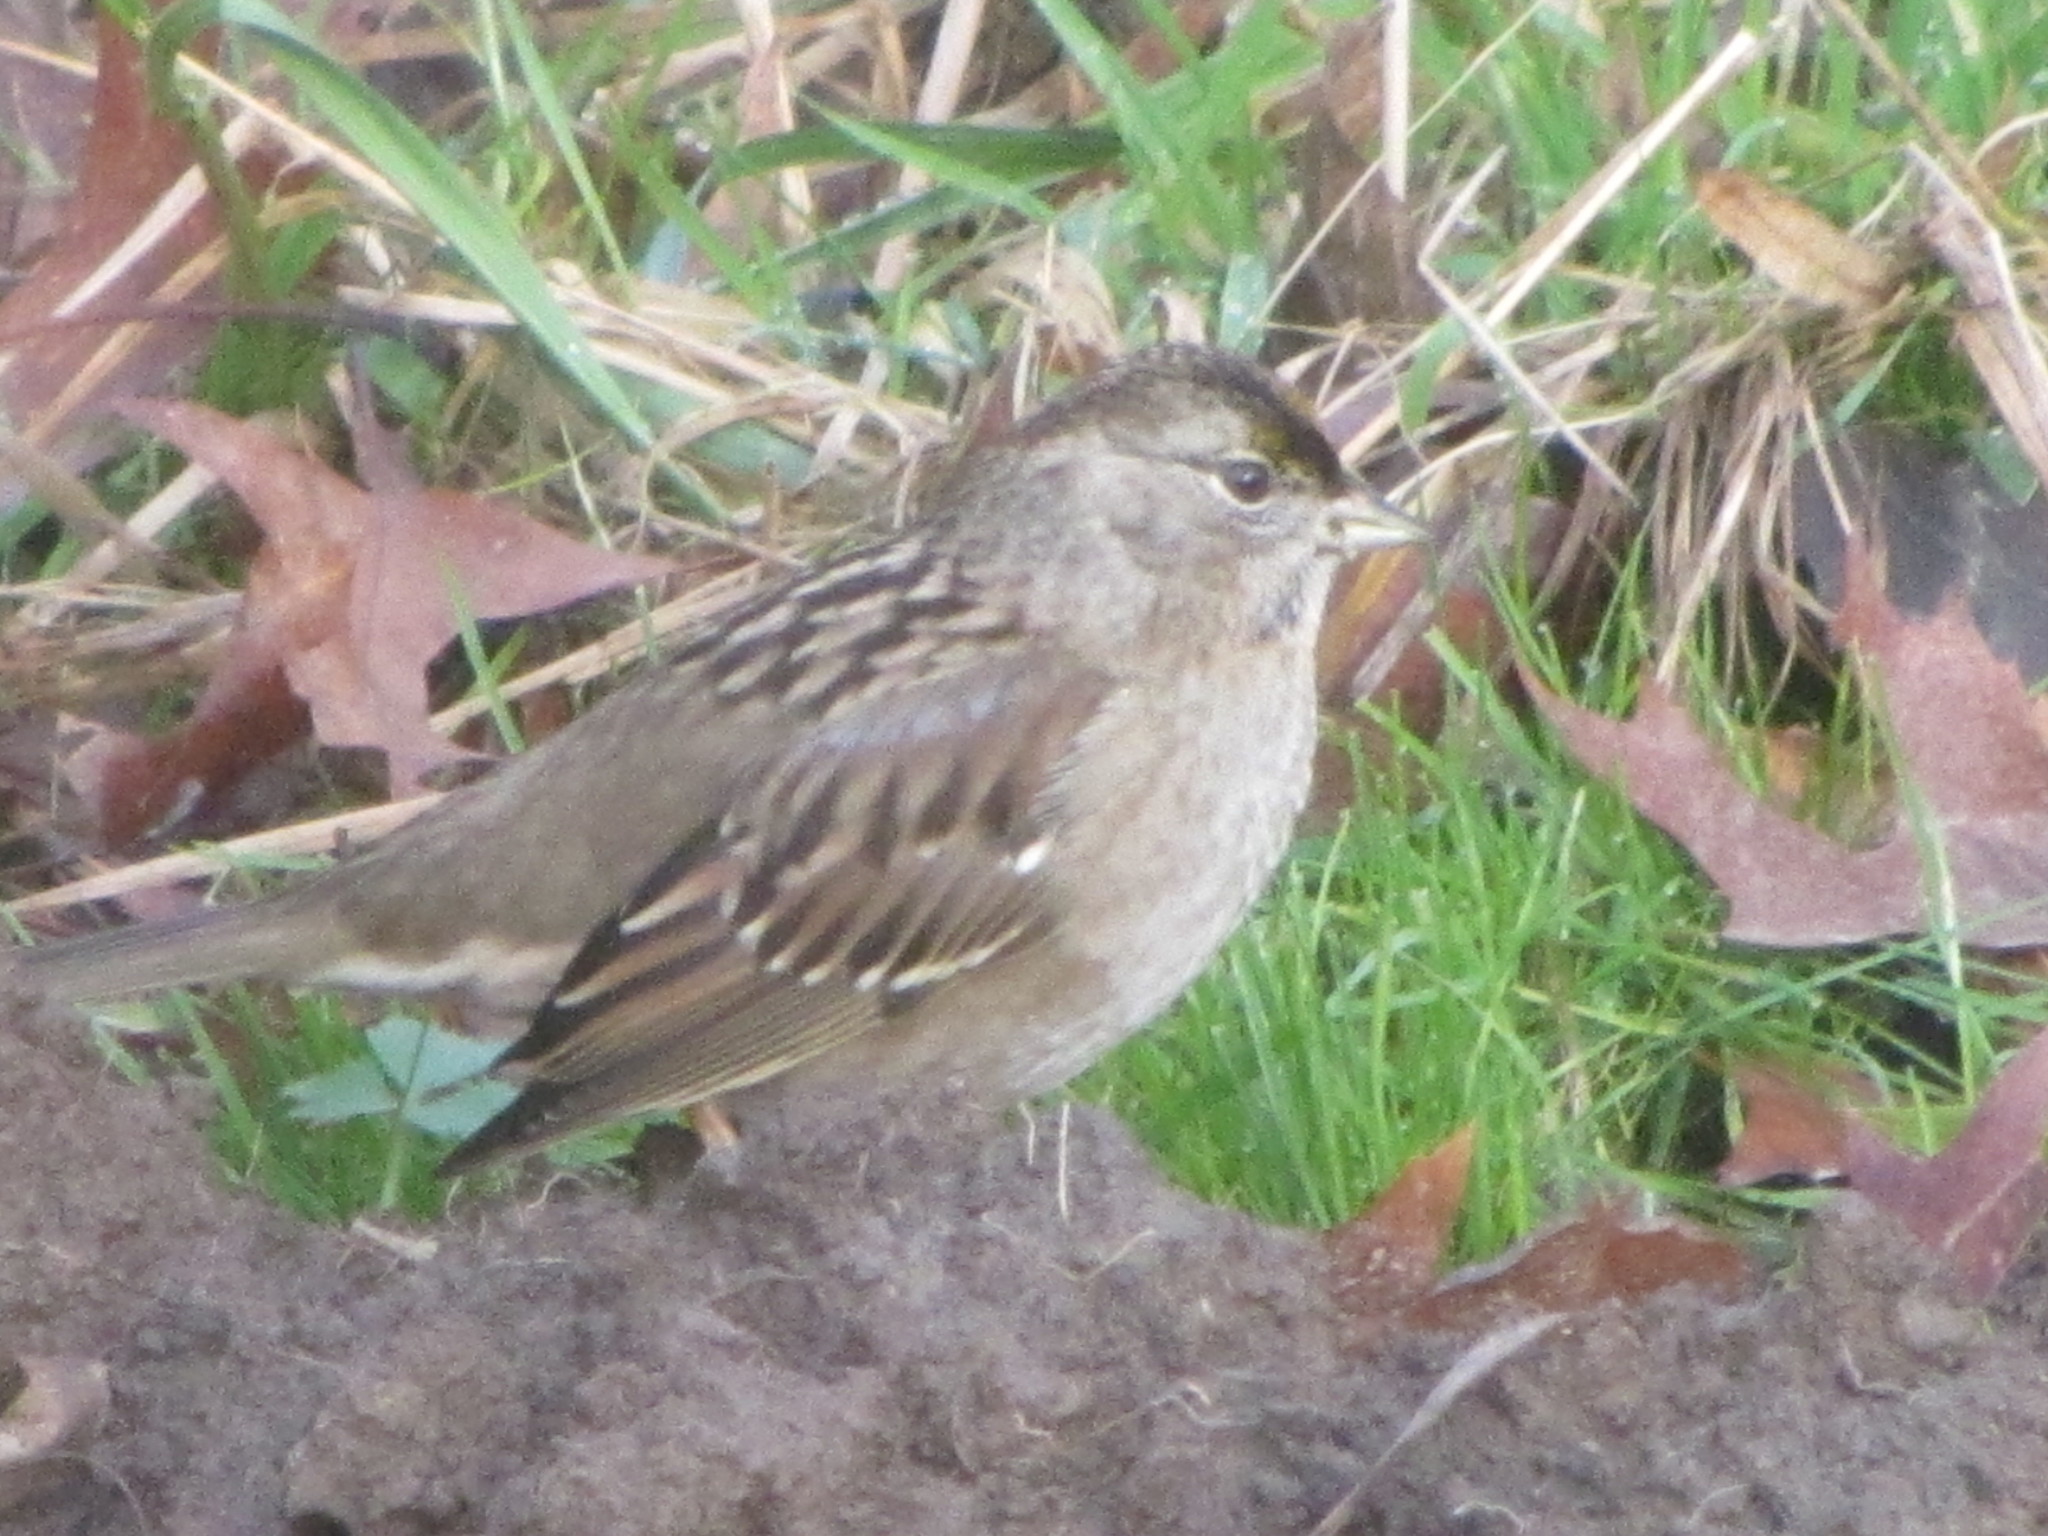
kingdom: Animalia
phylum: Chordata
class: Aves
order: Passeriformes
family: Passerellidae
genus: Zonotrichia
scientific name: Zonotrichia atricapilla
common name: Golden-crowned sparrow
